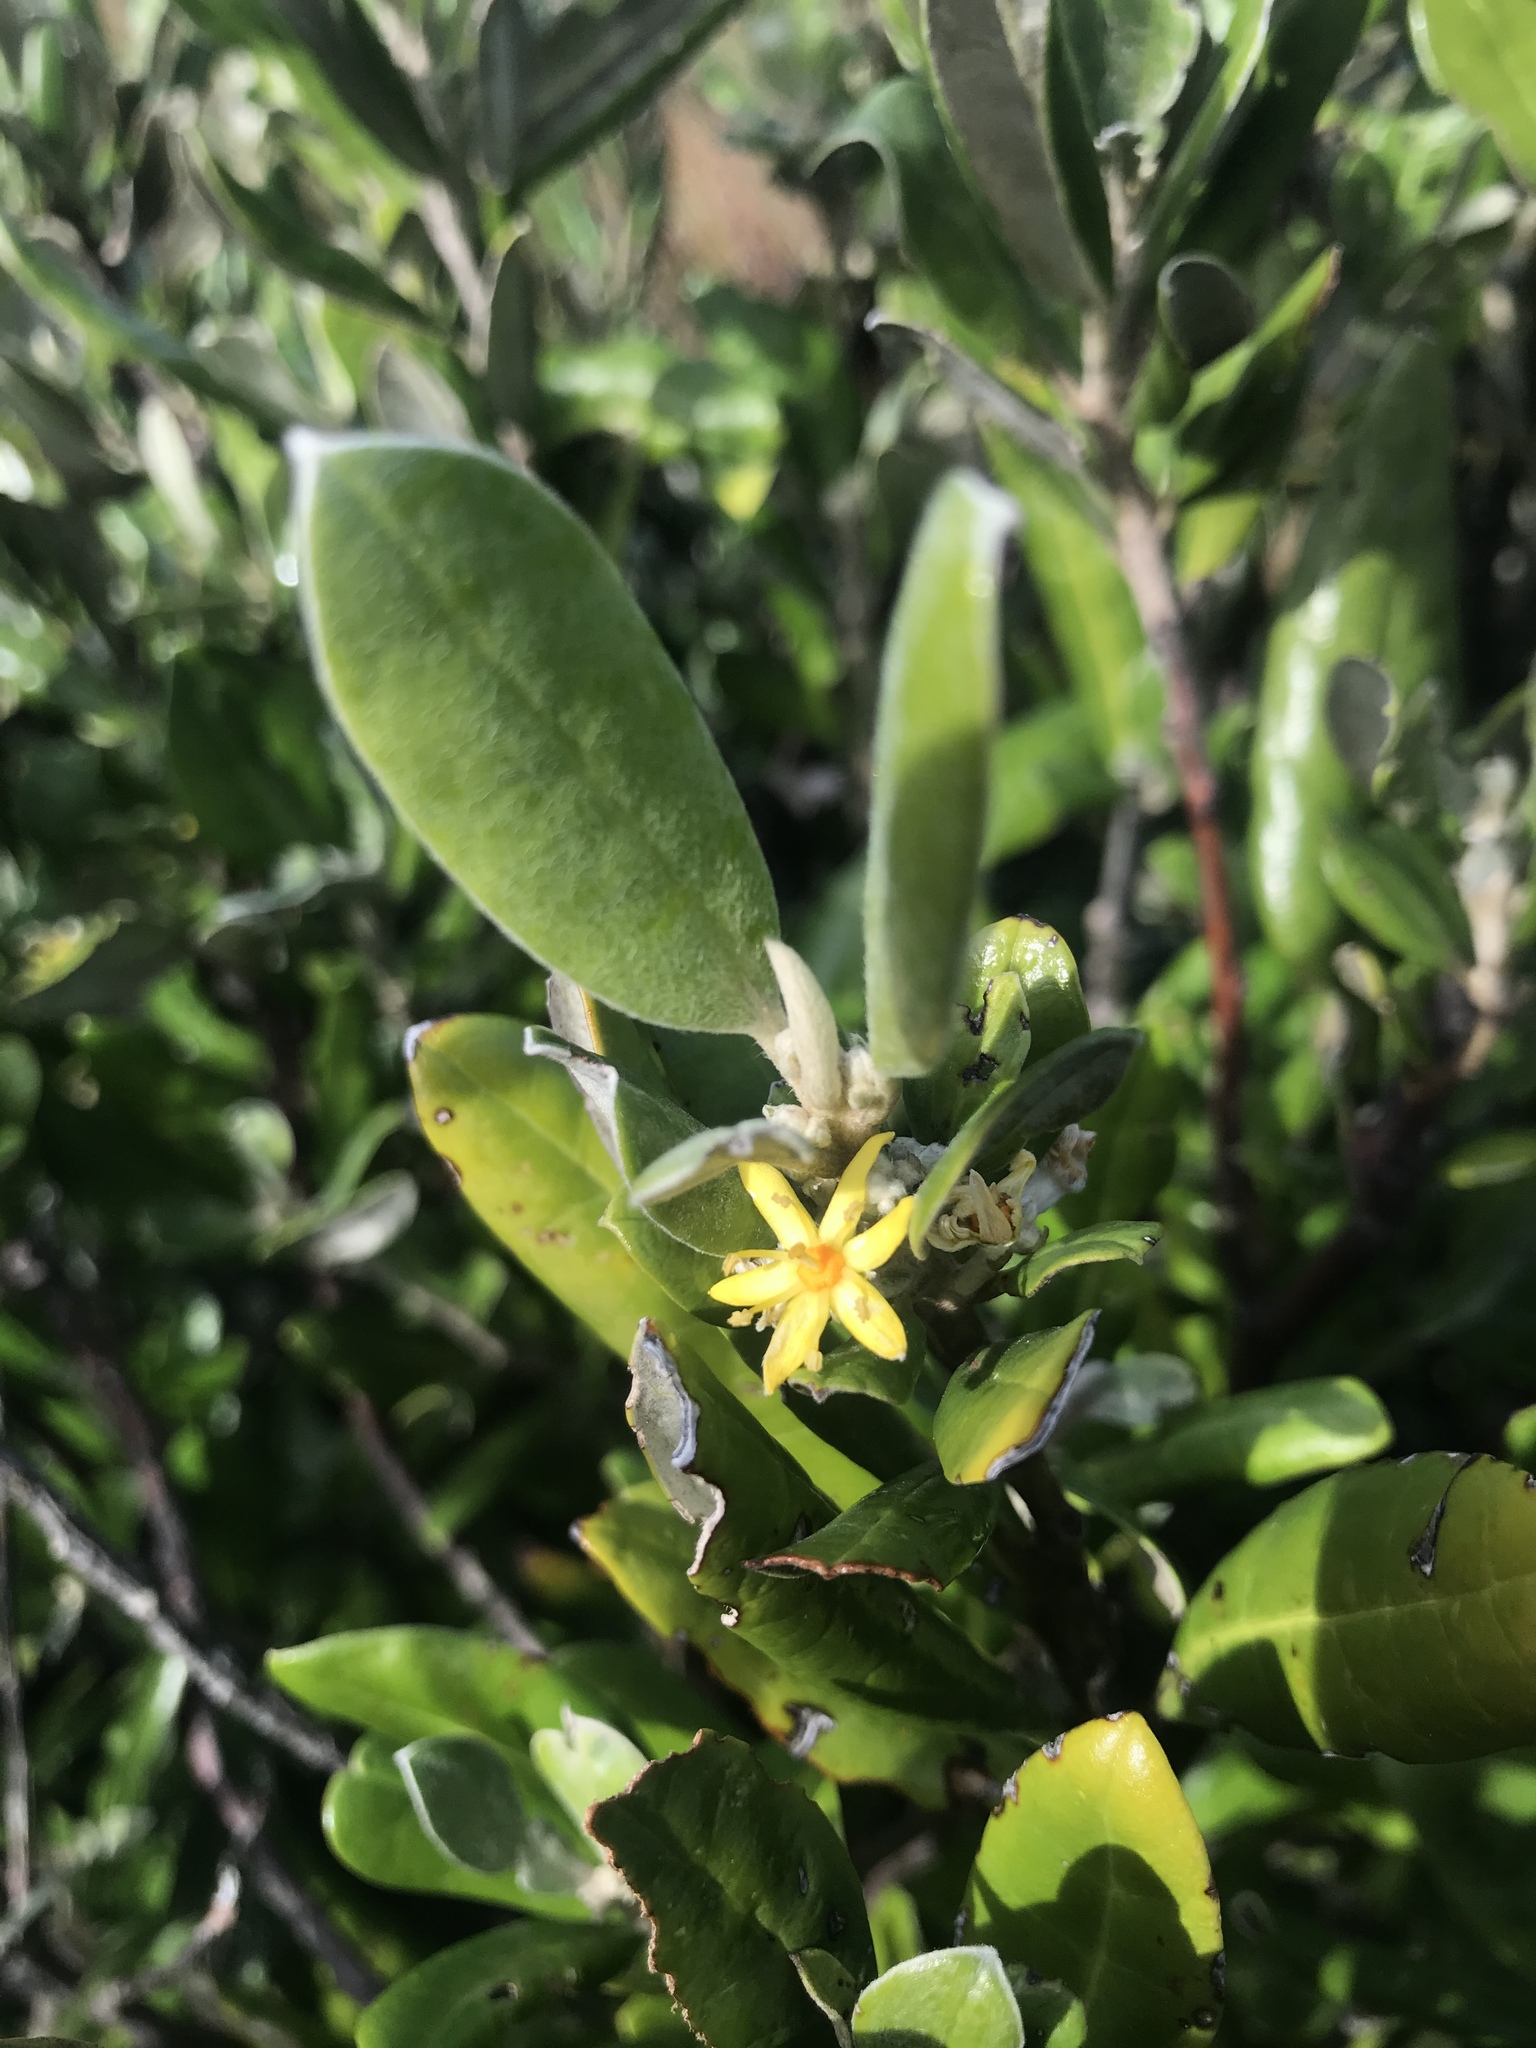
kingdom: Plantae
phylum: Tracheophyta
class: Magnoliopsida
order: Asterales
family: Argophyllaceae
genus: Corokia
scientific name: Corokia macrocarpa
